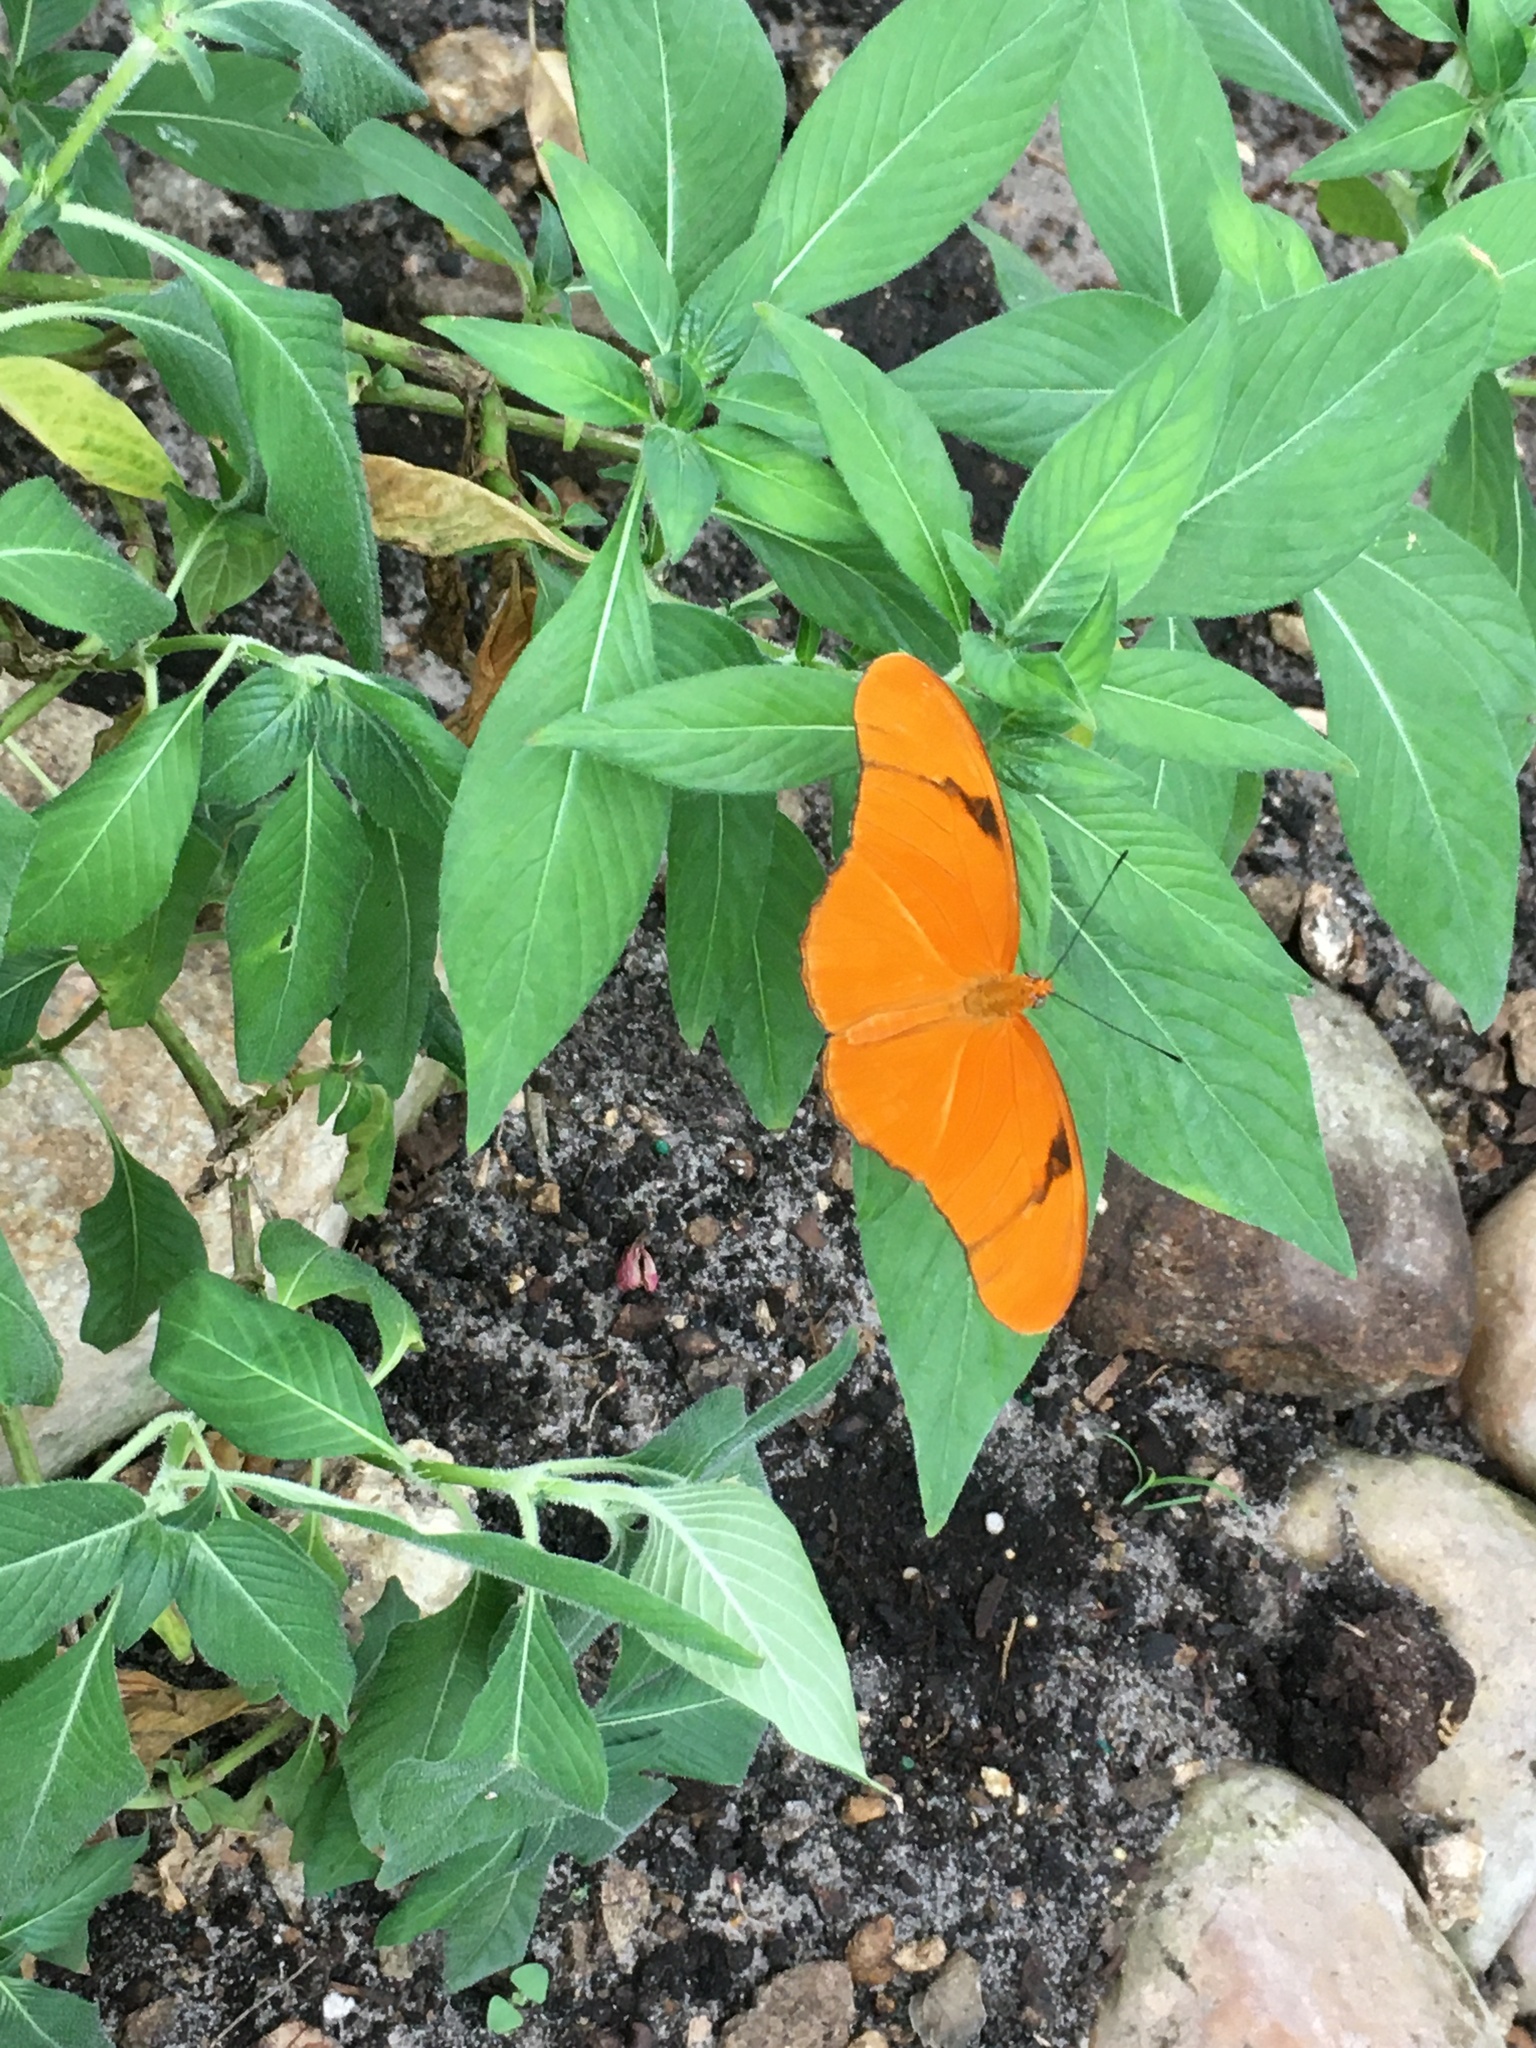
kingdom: Animalia
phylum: Arthropoda
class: Insecta
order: Lepidoptera
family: Nymphalidae
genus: Dryas
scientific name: Dryas iulia
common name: Flambeau
